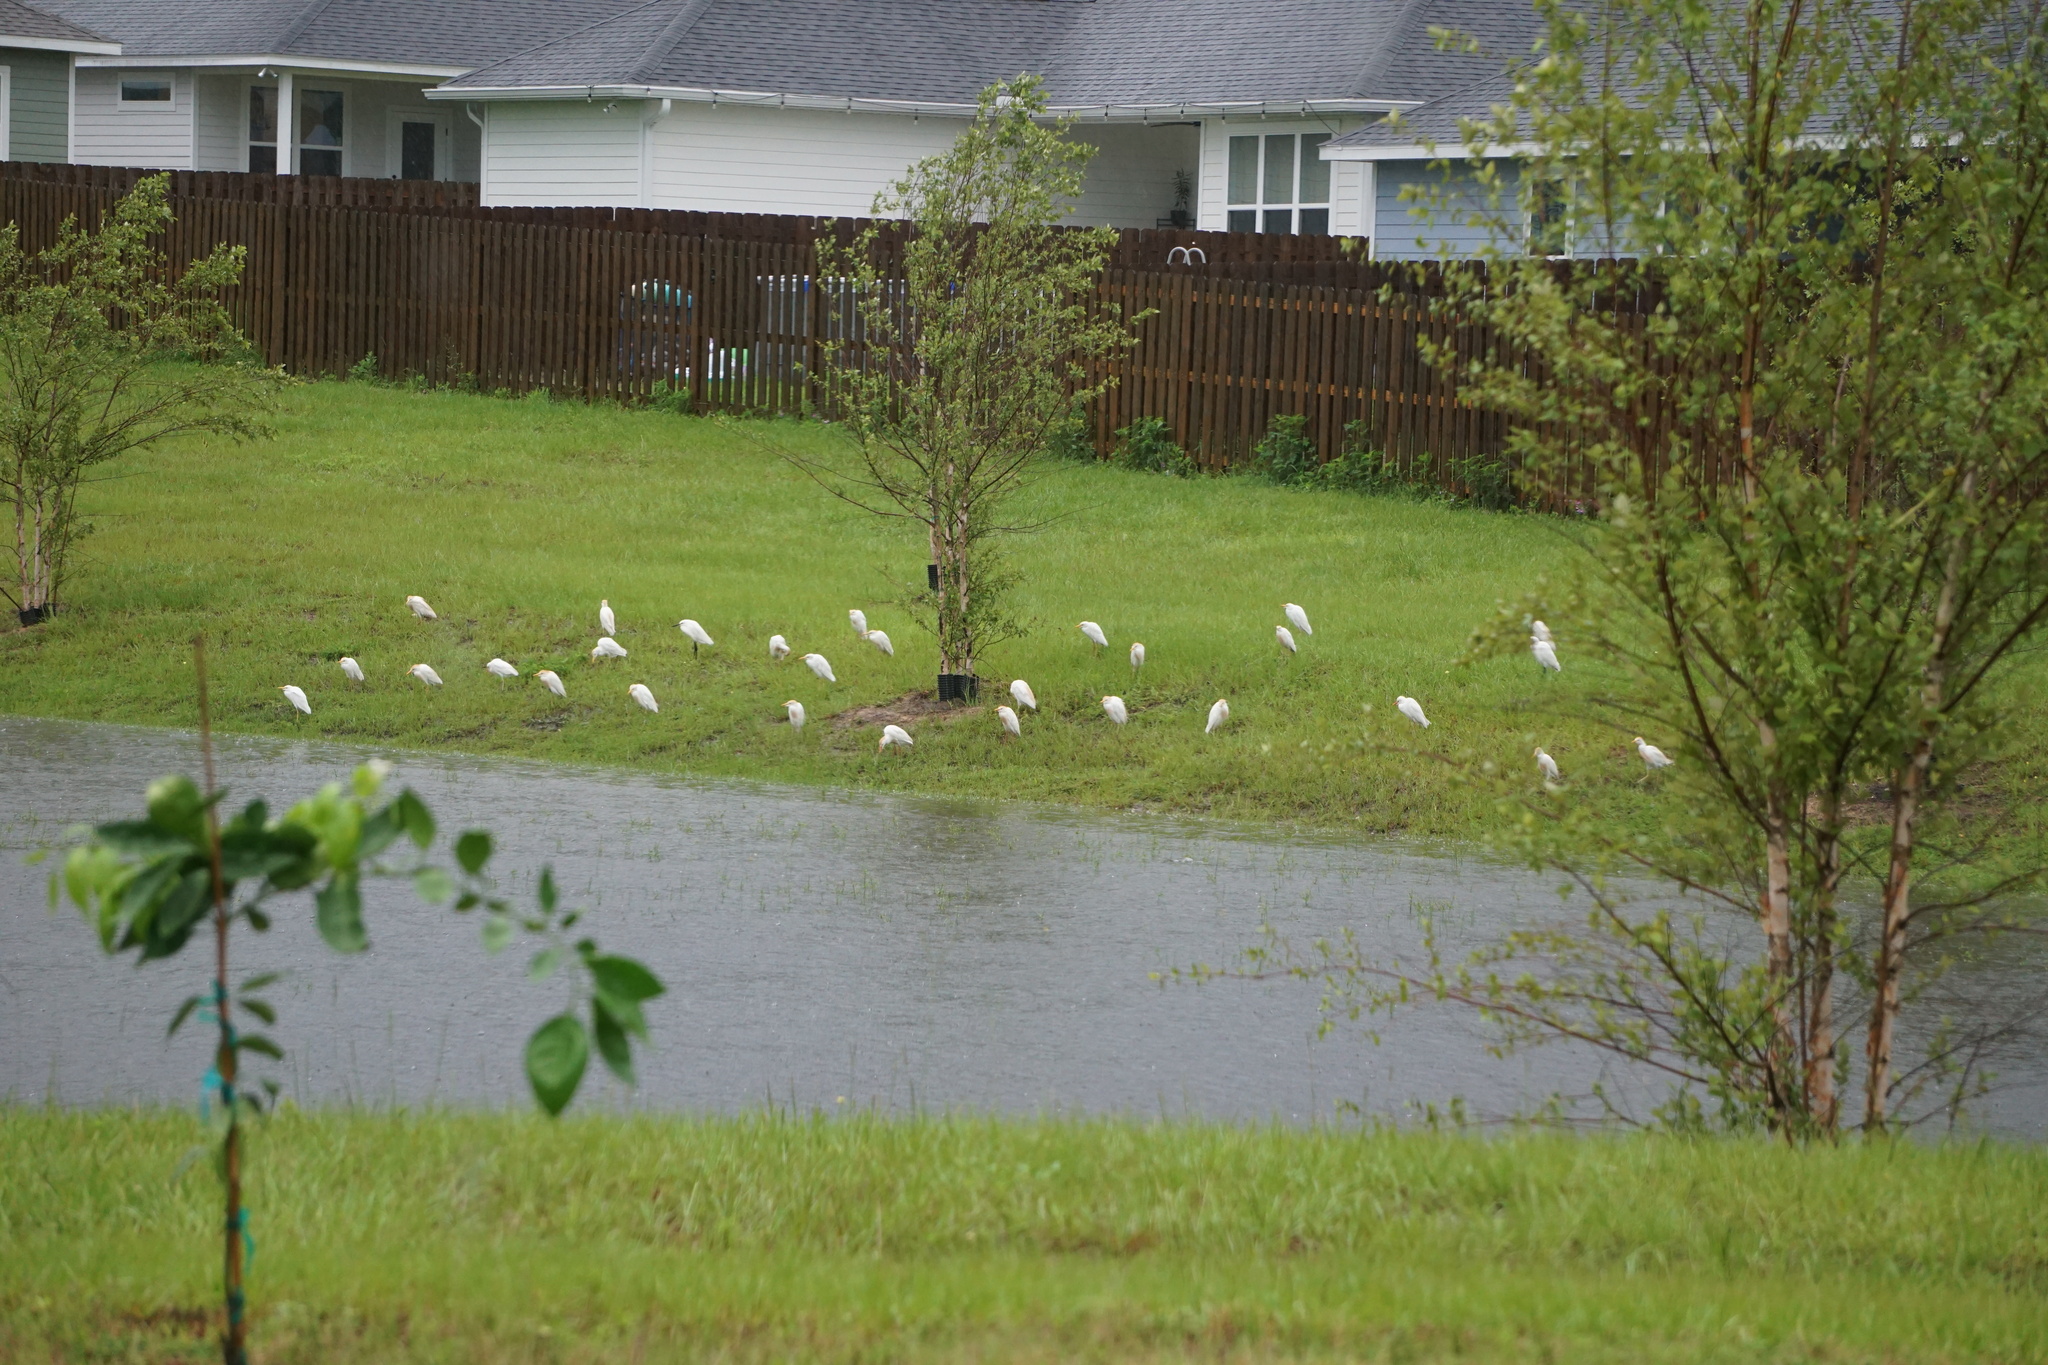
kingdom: Animalia
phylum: Chordata
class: Aves
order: Pelecaniformes
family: Ardeidae
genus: Bubulcus
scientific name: Bubulcus ibis
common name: Cattle egret
